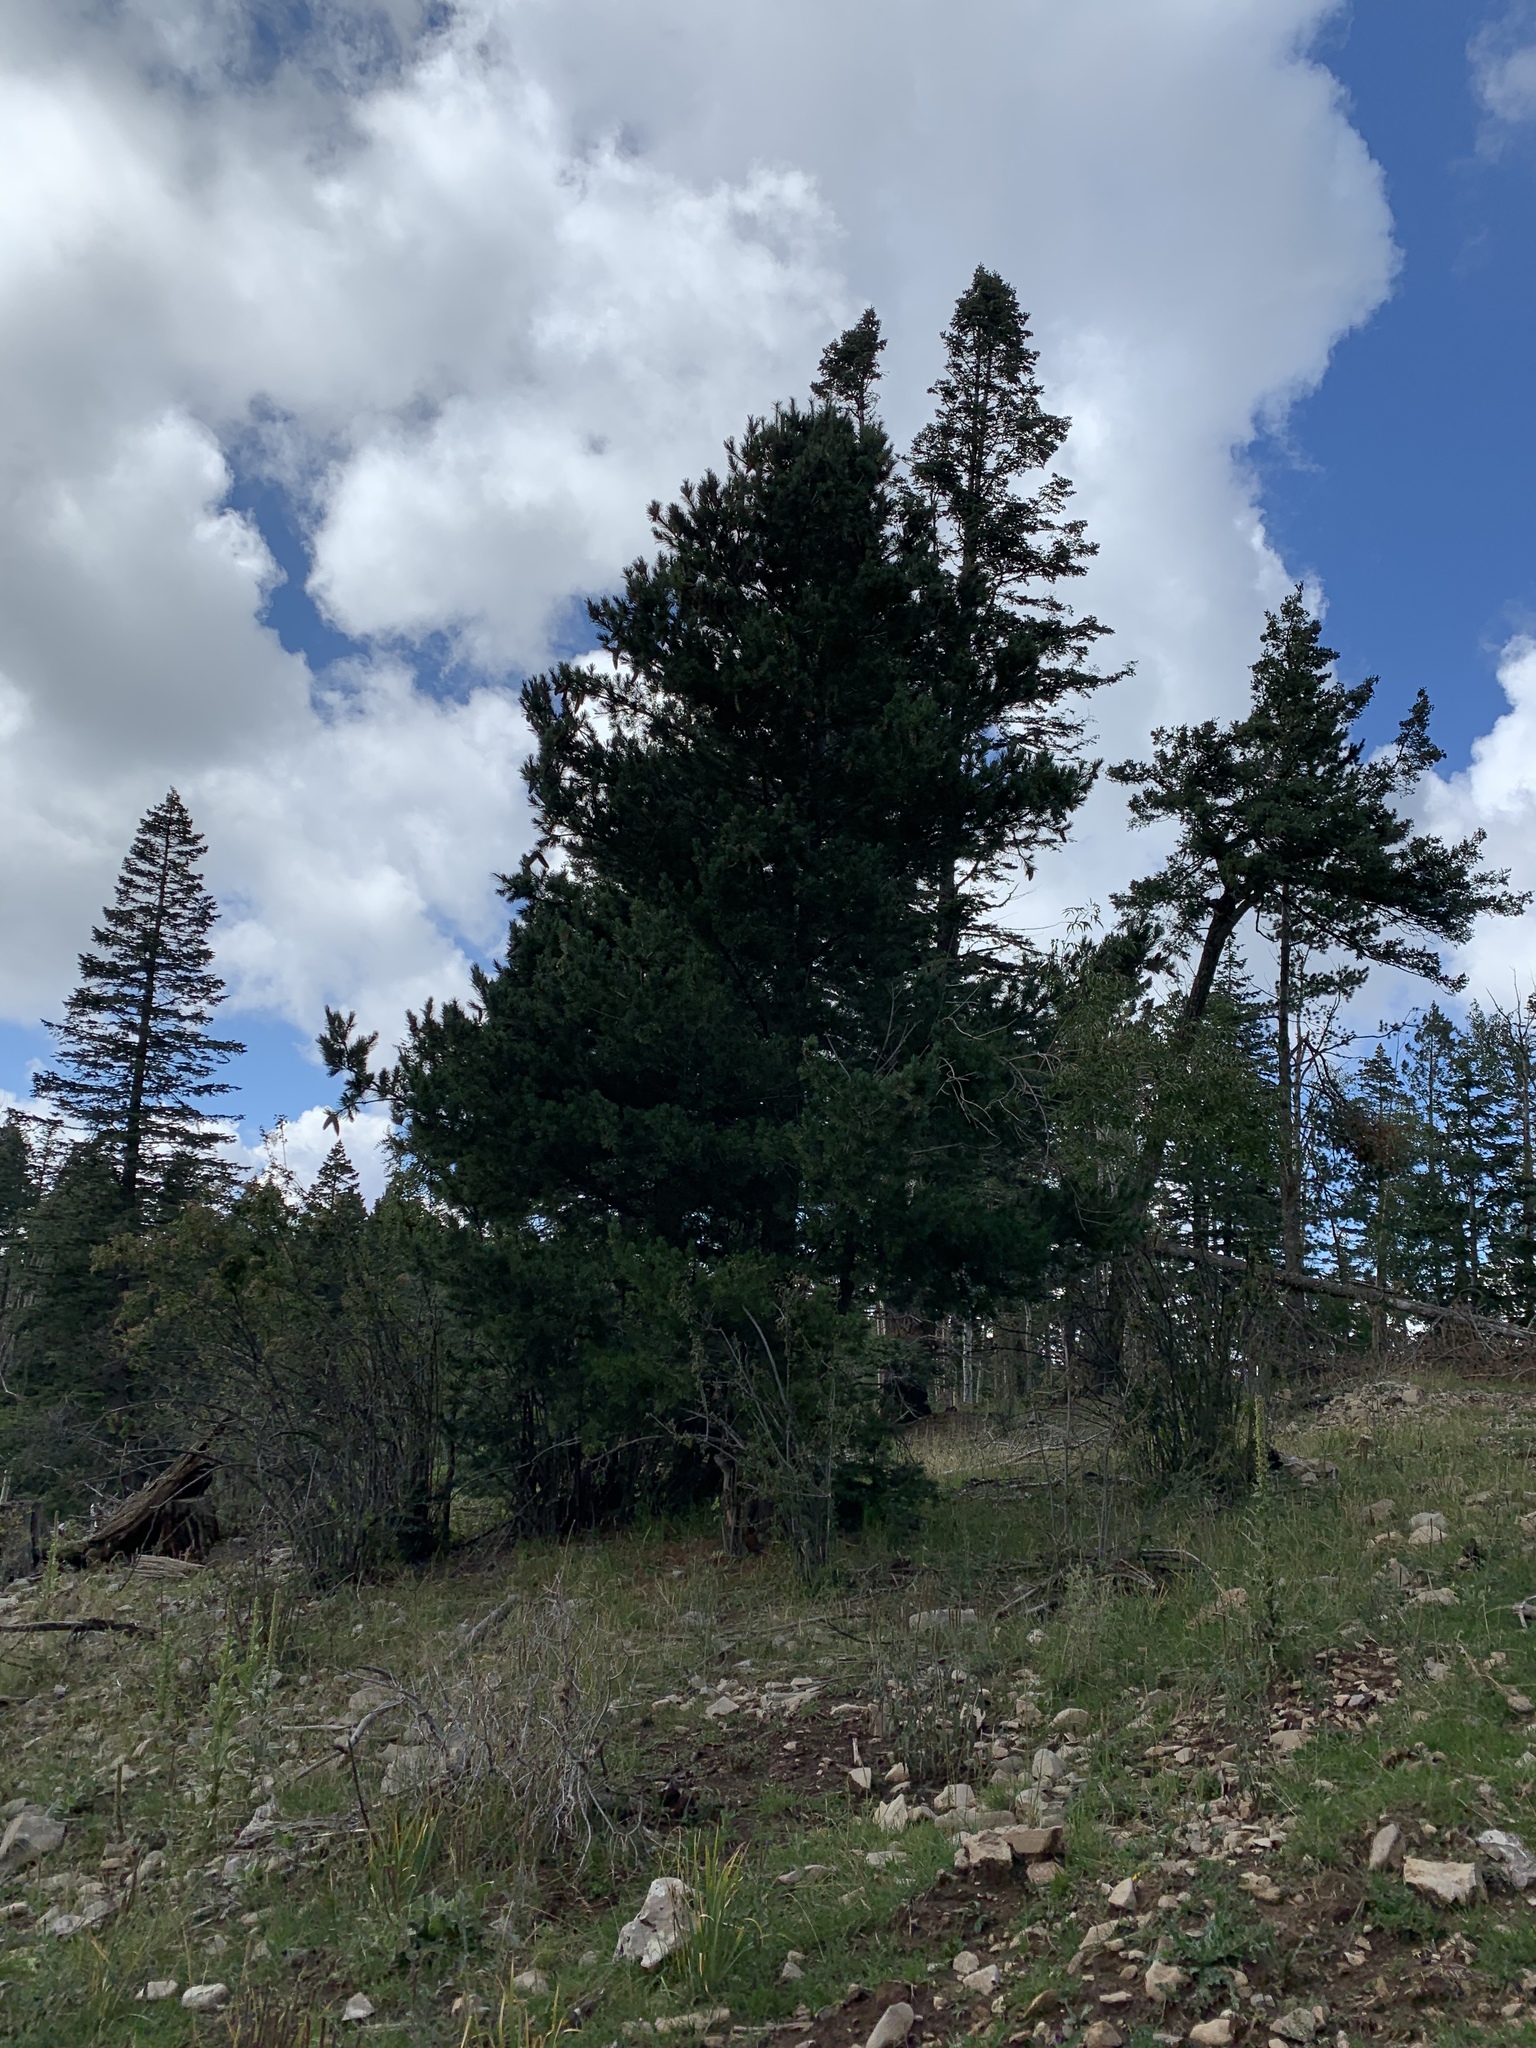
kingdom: Plantae
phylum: Tracheophyta
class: Pinopsida
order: Pinales
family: Pinaceae
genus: Pinus
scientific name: Pinus strobiformis
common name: Southwestern white pine
